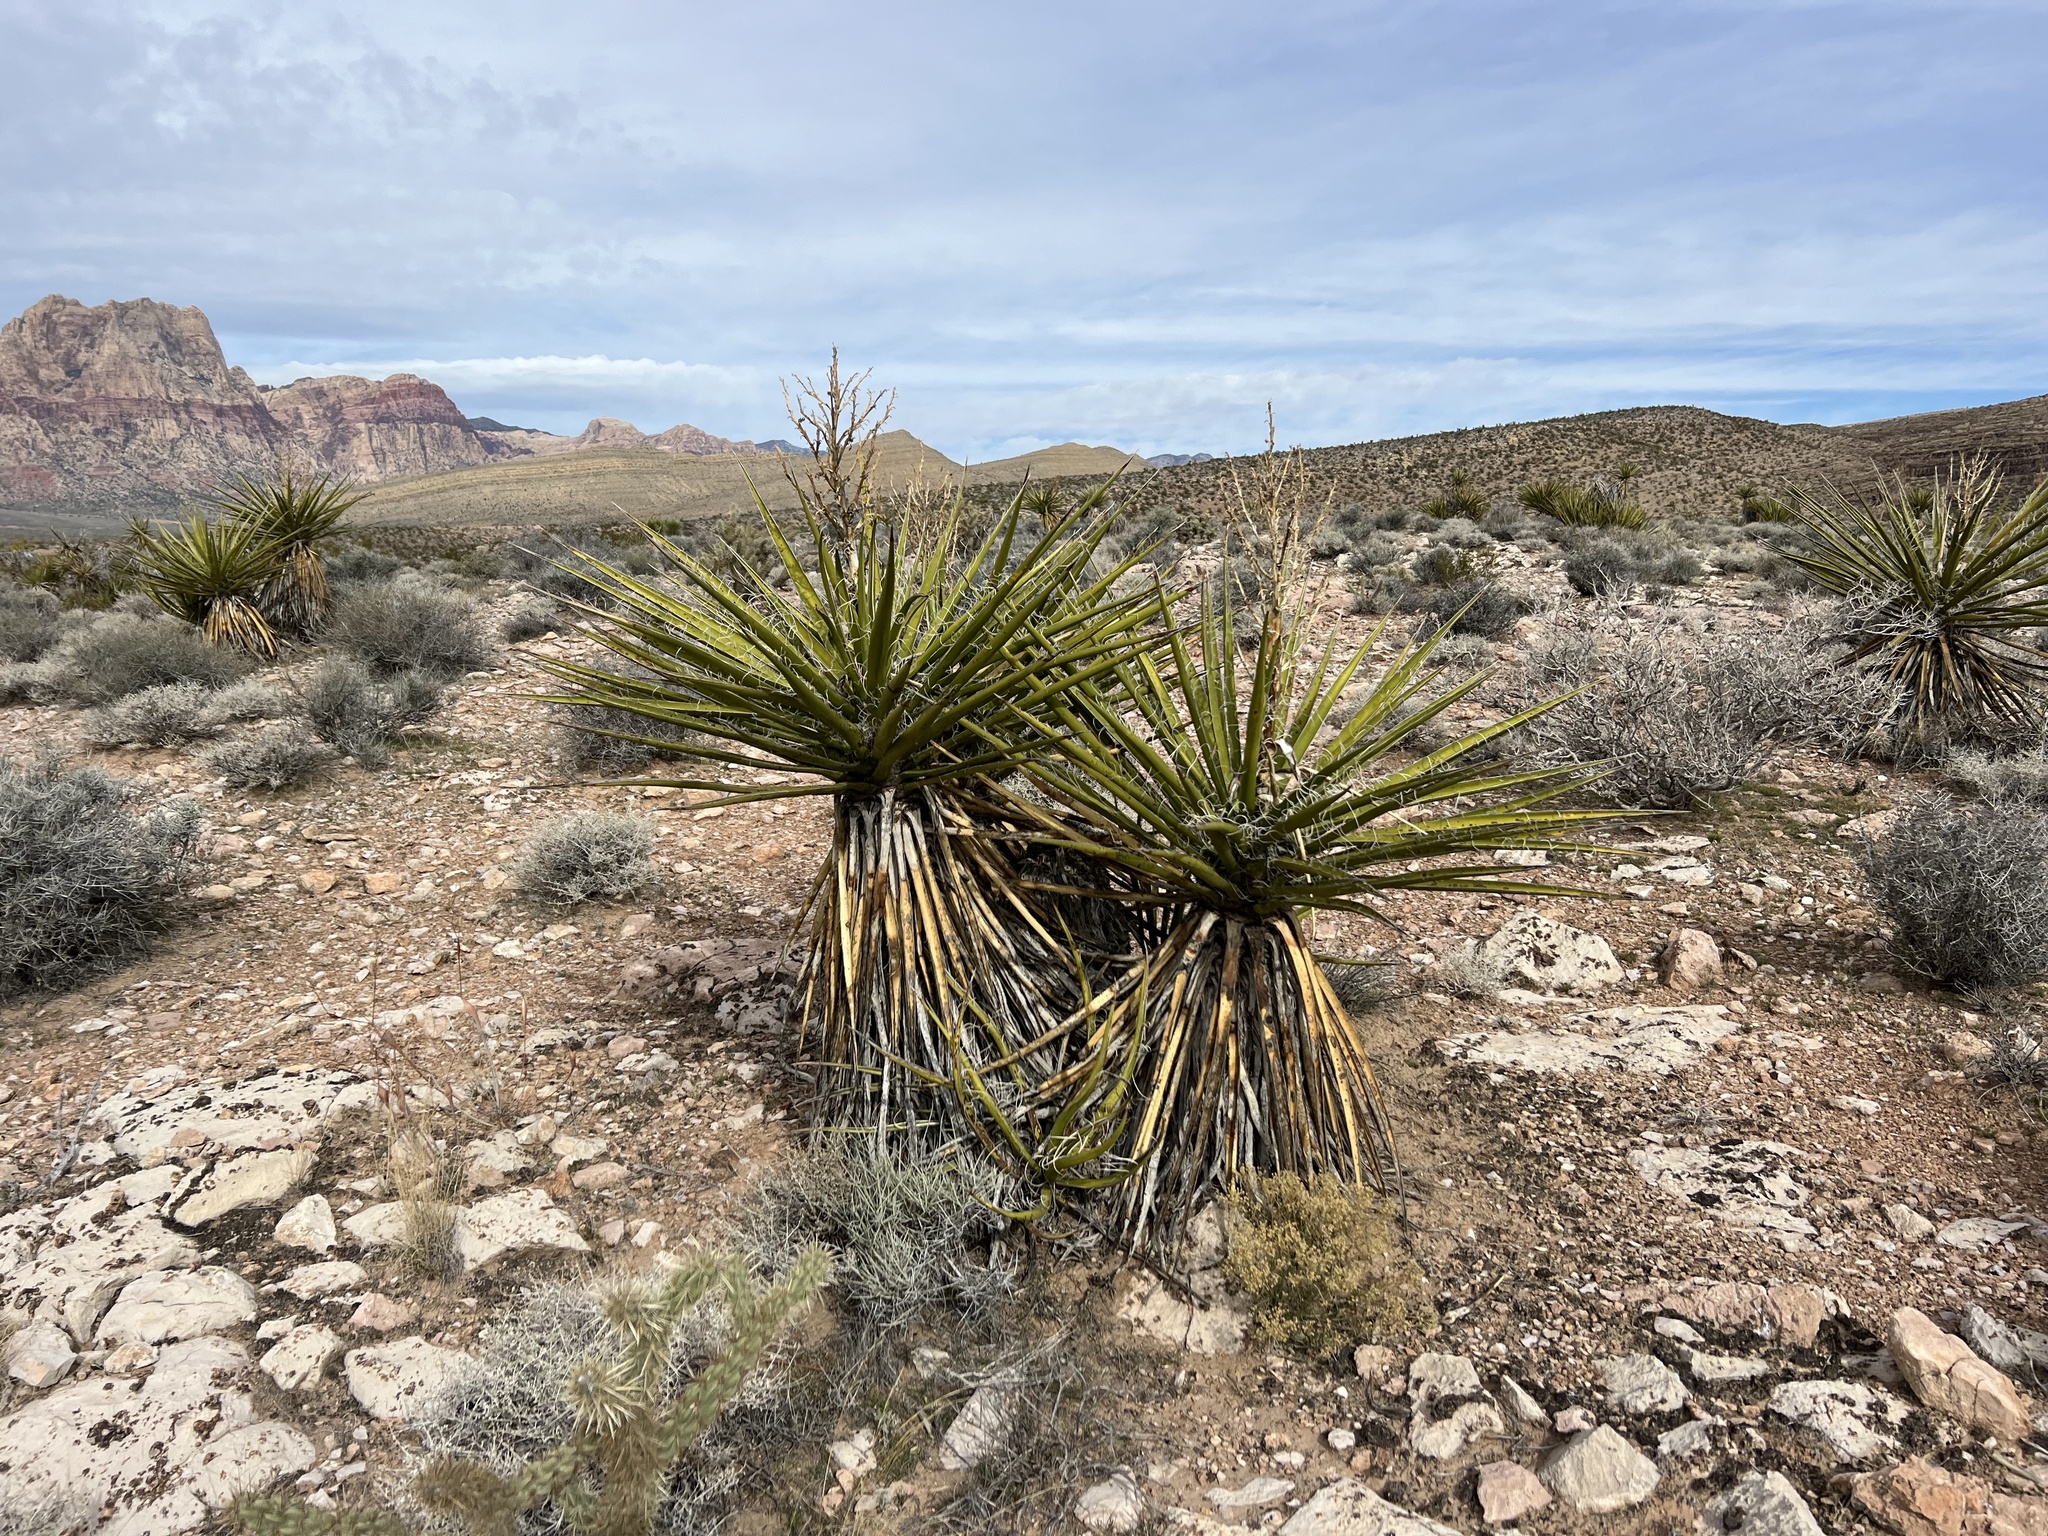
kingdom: Plantae
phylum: Tracheophyta
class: Liliopsida
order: Asparagales
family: Asparagaceae
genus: Yucca
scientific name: Yucca schidigera
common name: Mojave yucca
